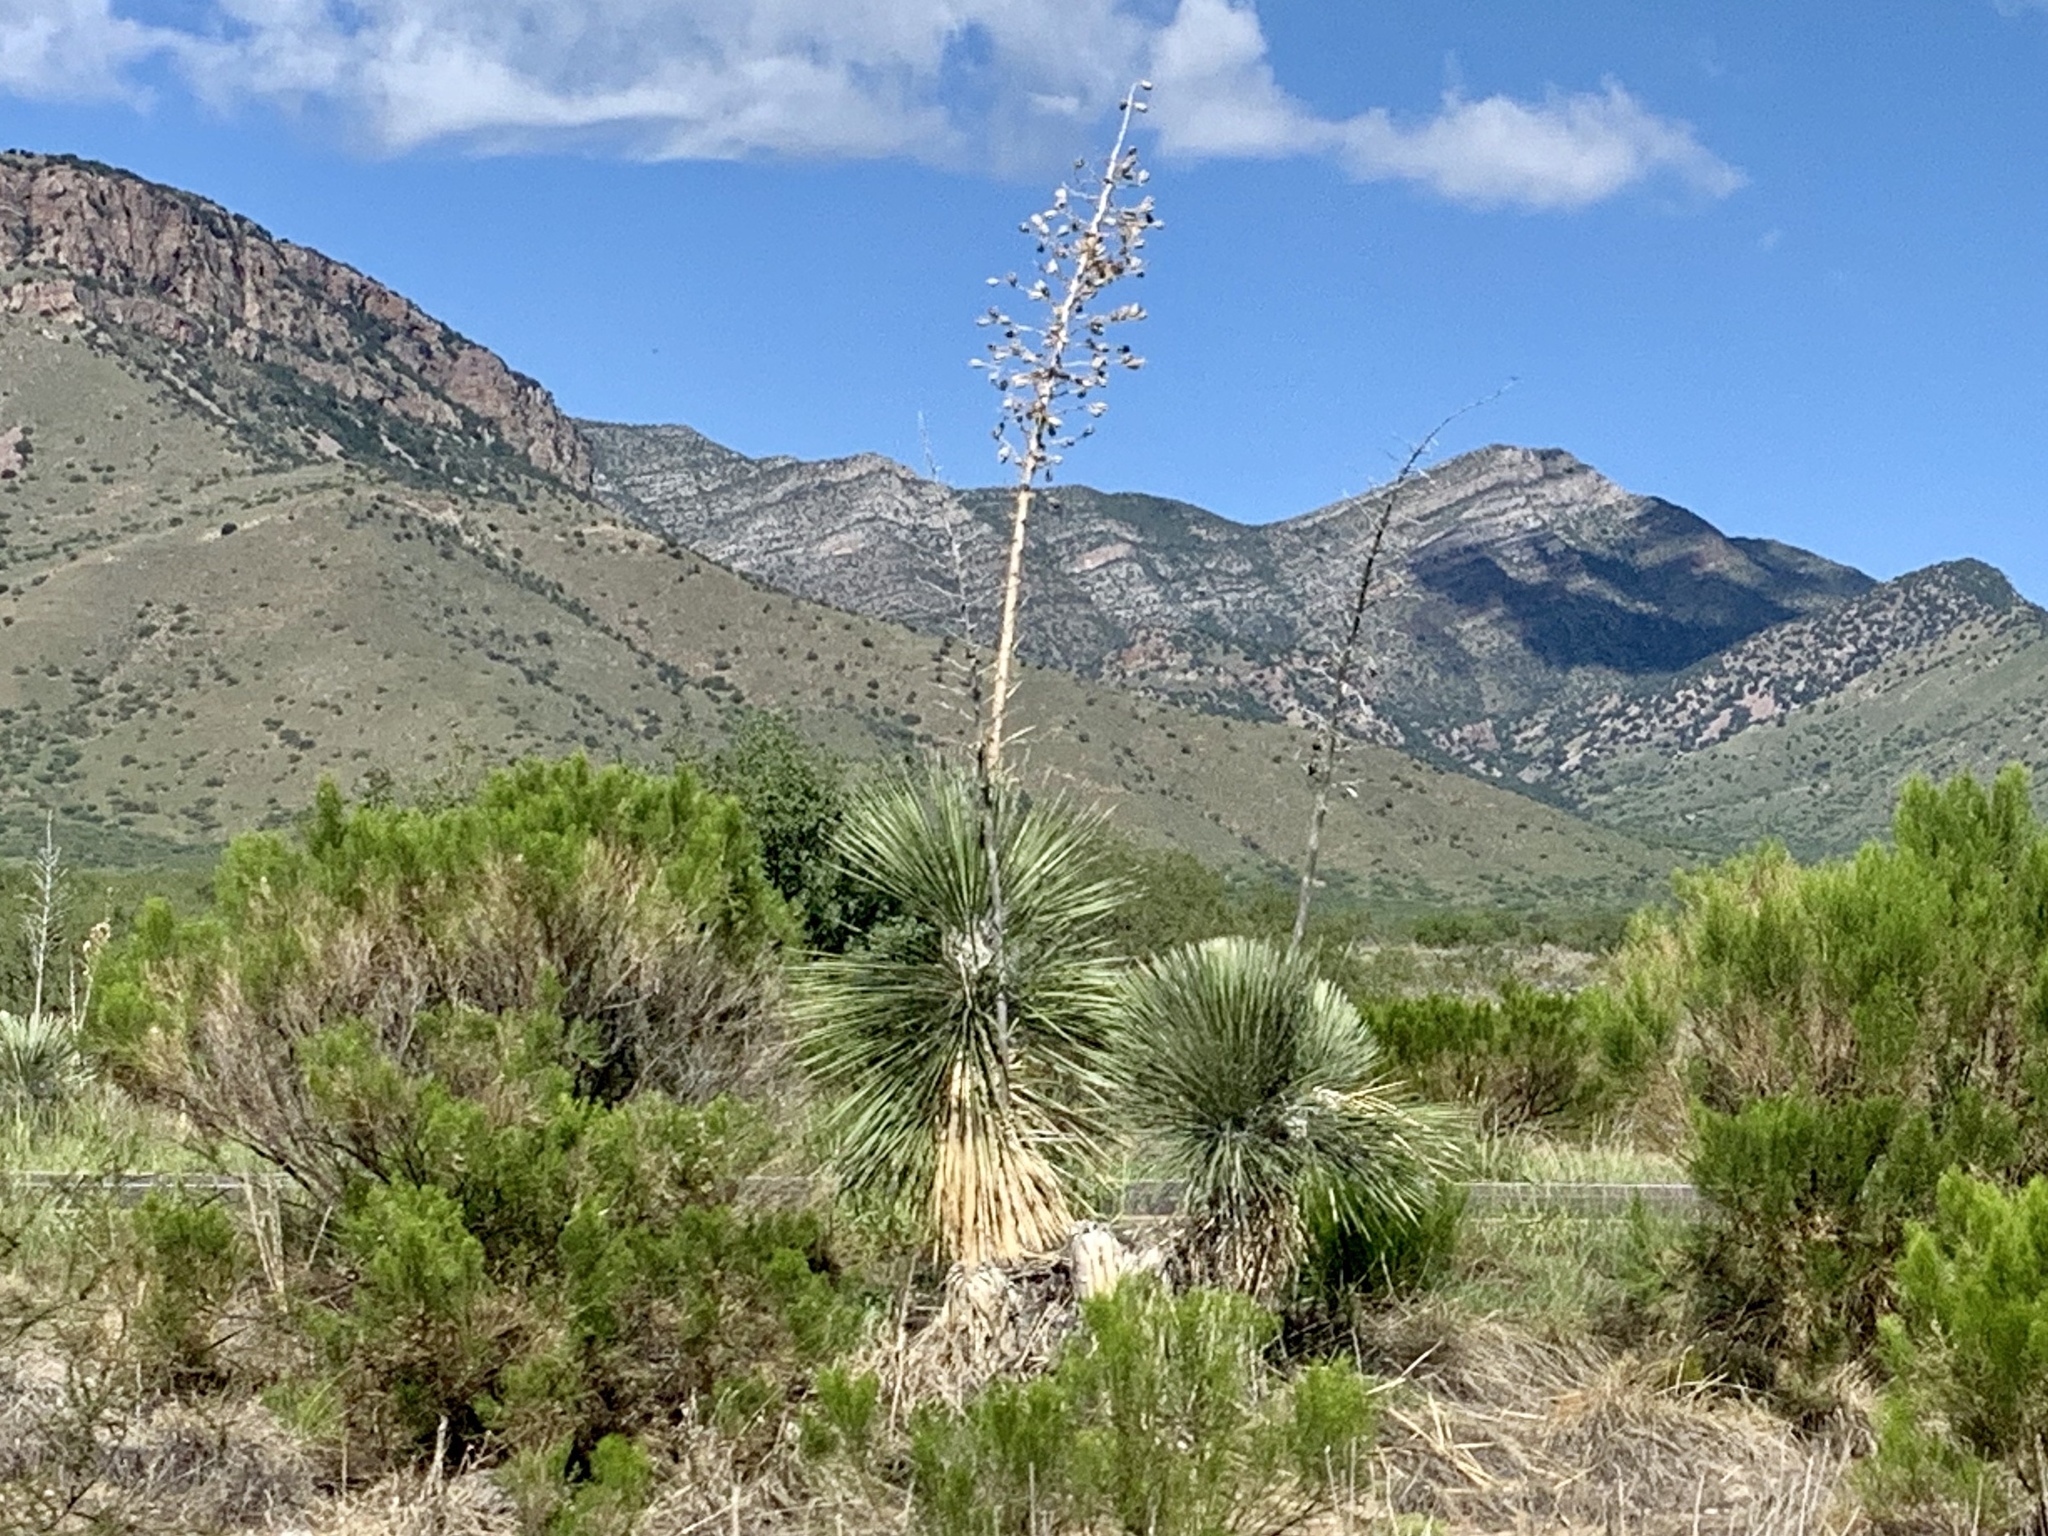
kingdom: Plantae
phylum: Tracheophyta
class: Liliopsida
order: Asparagales
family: Asparagaceae
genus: Yucca
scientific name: Yucca elata
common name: Palmella
